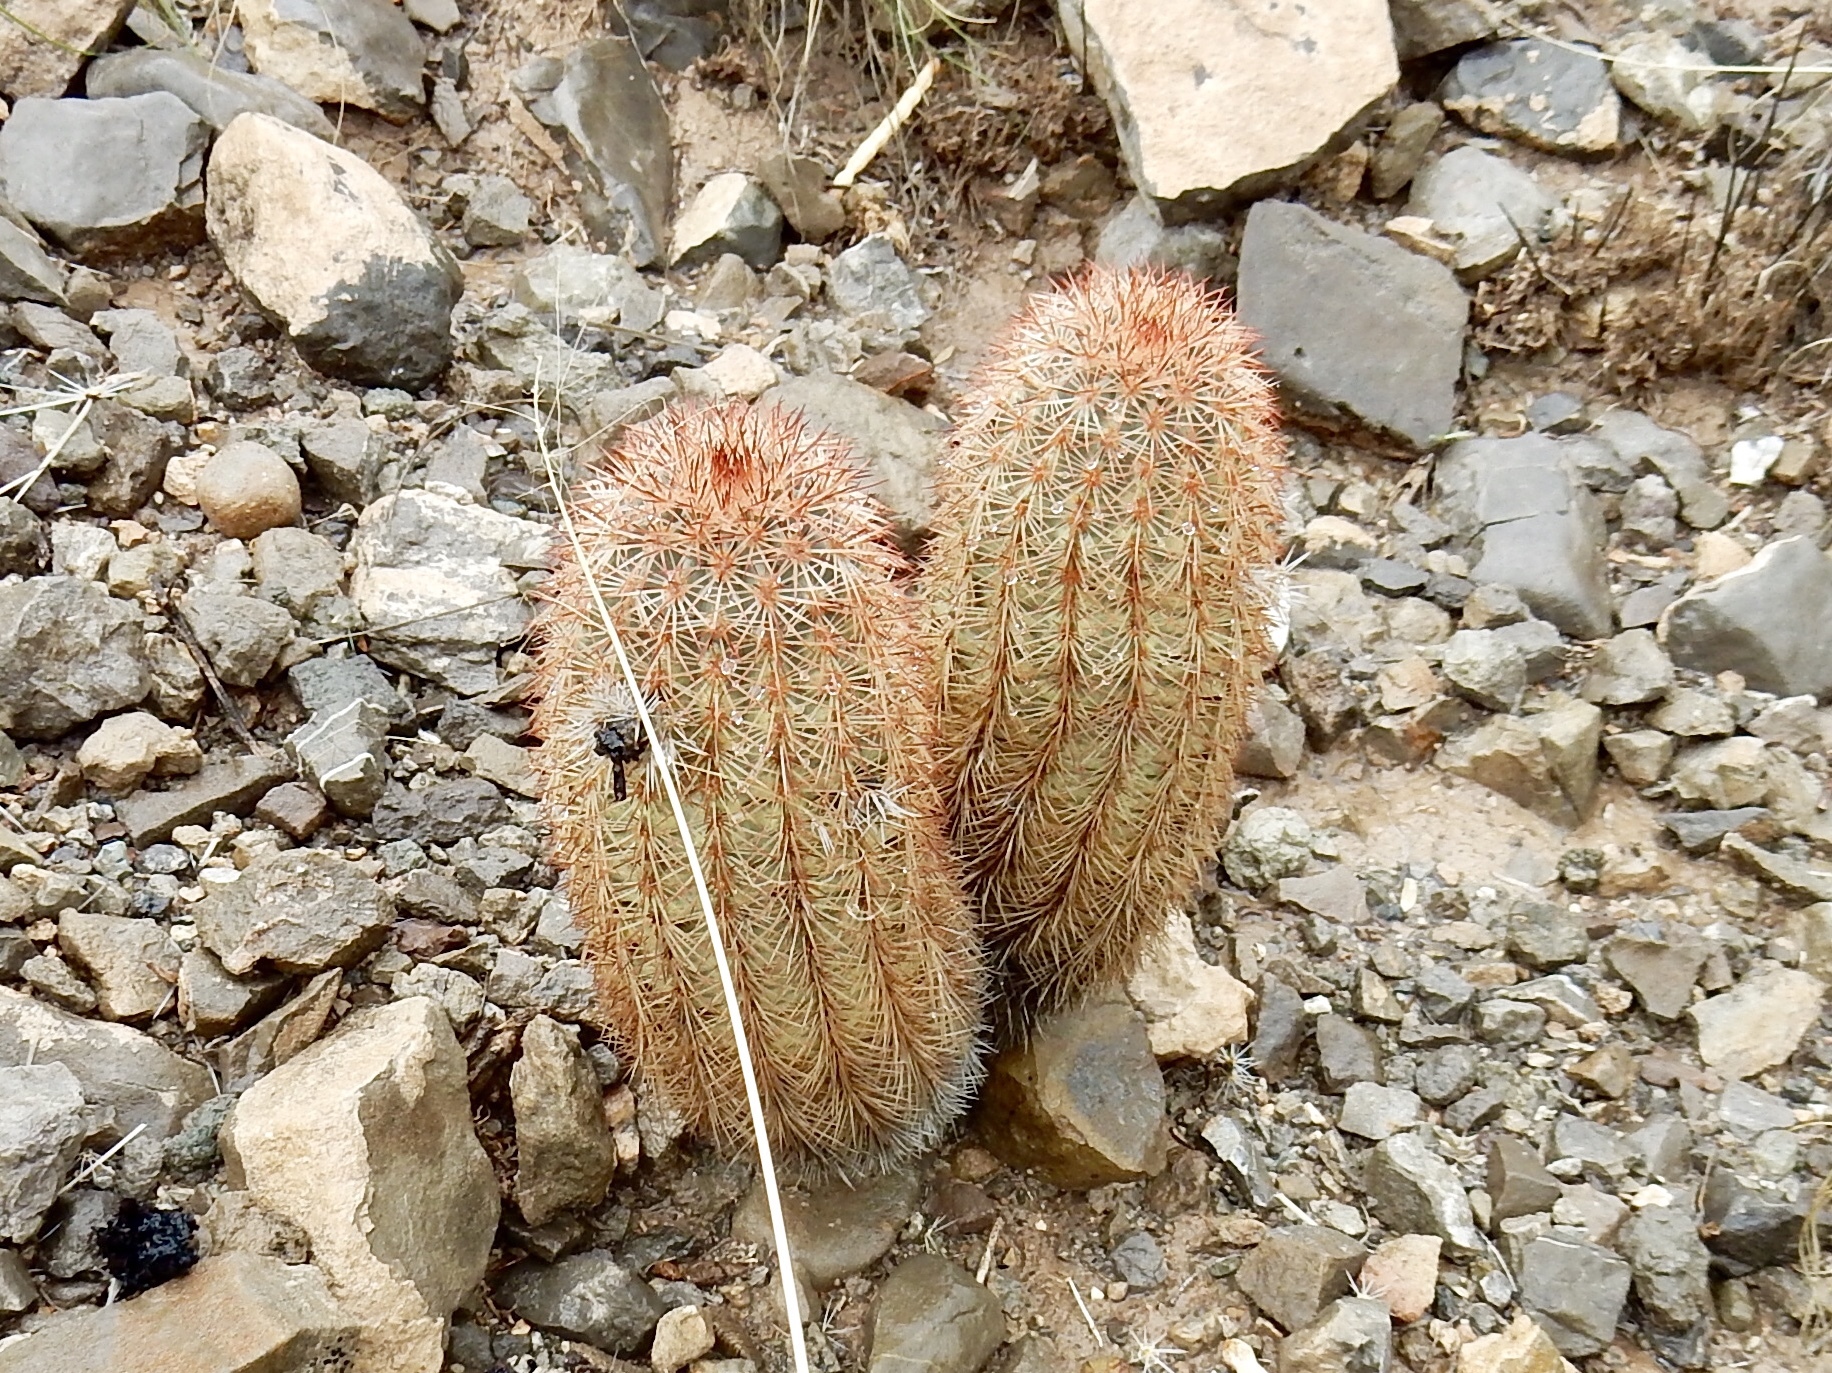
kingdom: Plantae
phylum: Tracheophyta
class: Magnoliopsida
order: Caryophyllales
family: Cactaceae
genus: Echinocereus
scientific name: Echinocereus dasyacanthus
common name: Spiny hedgehog cactus
